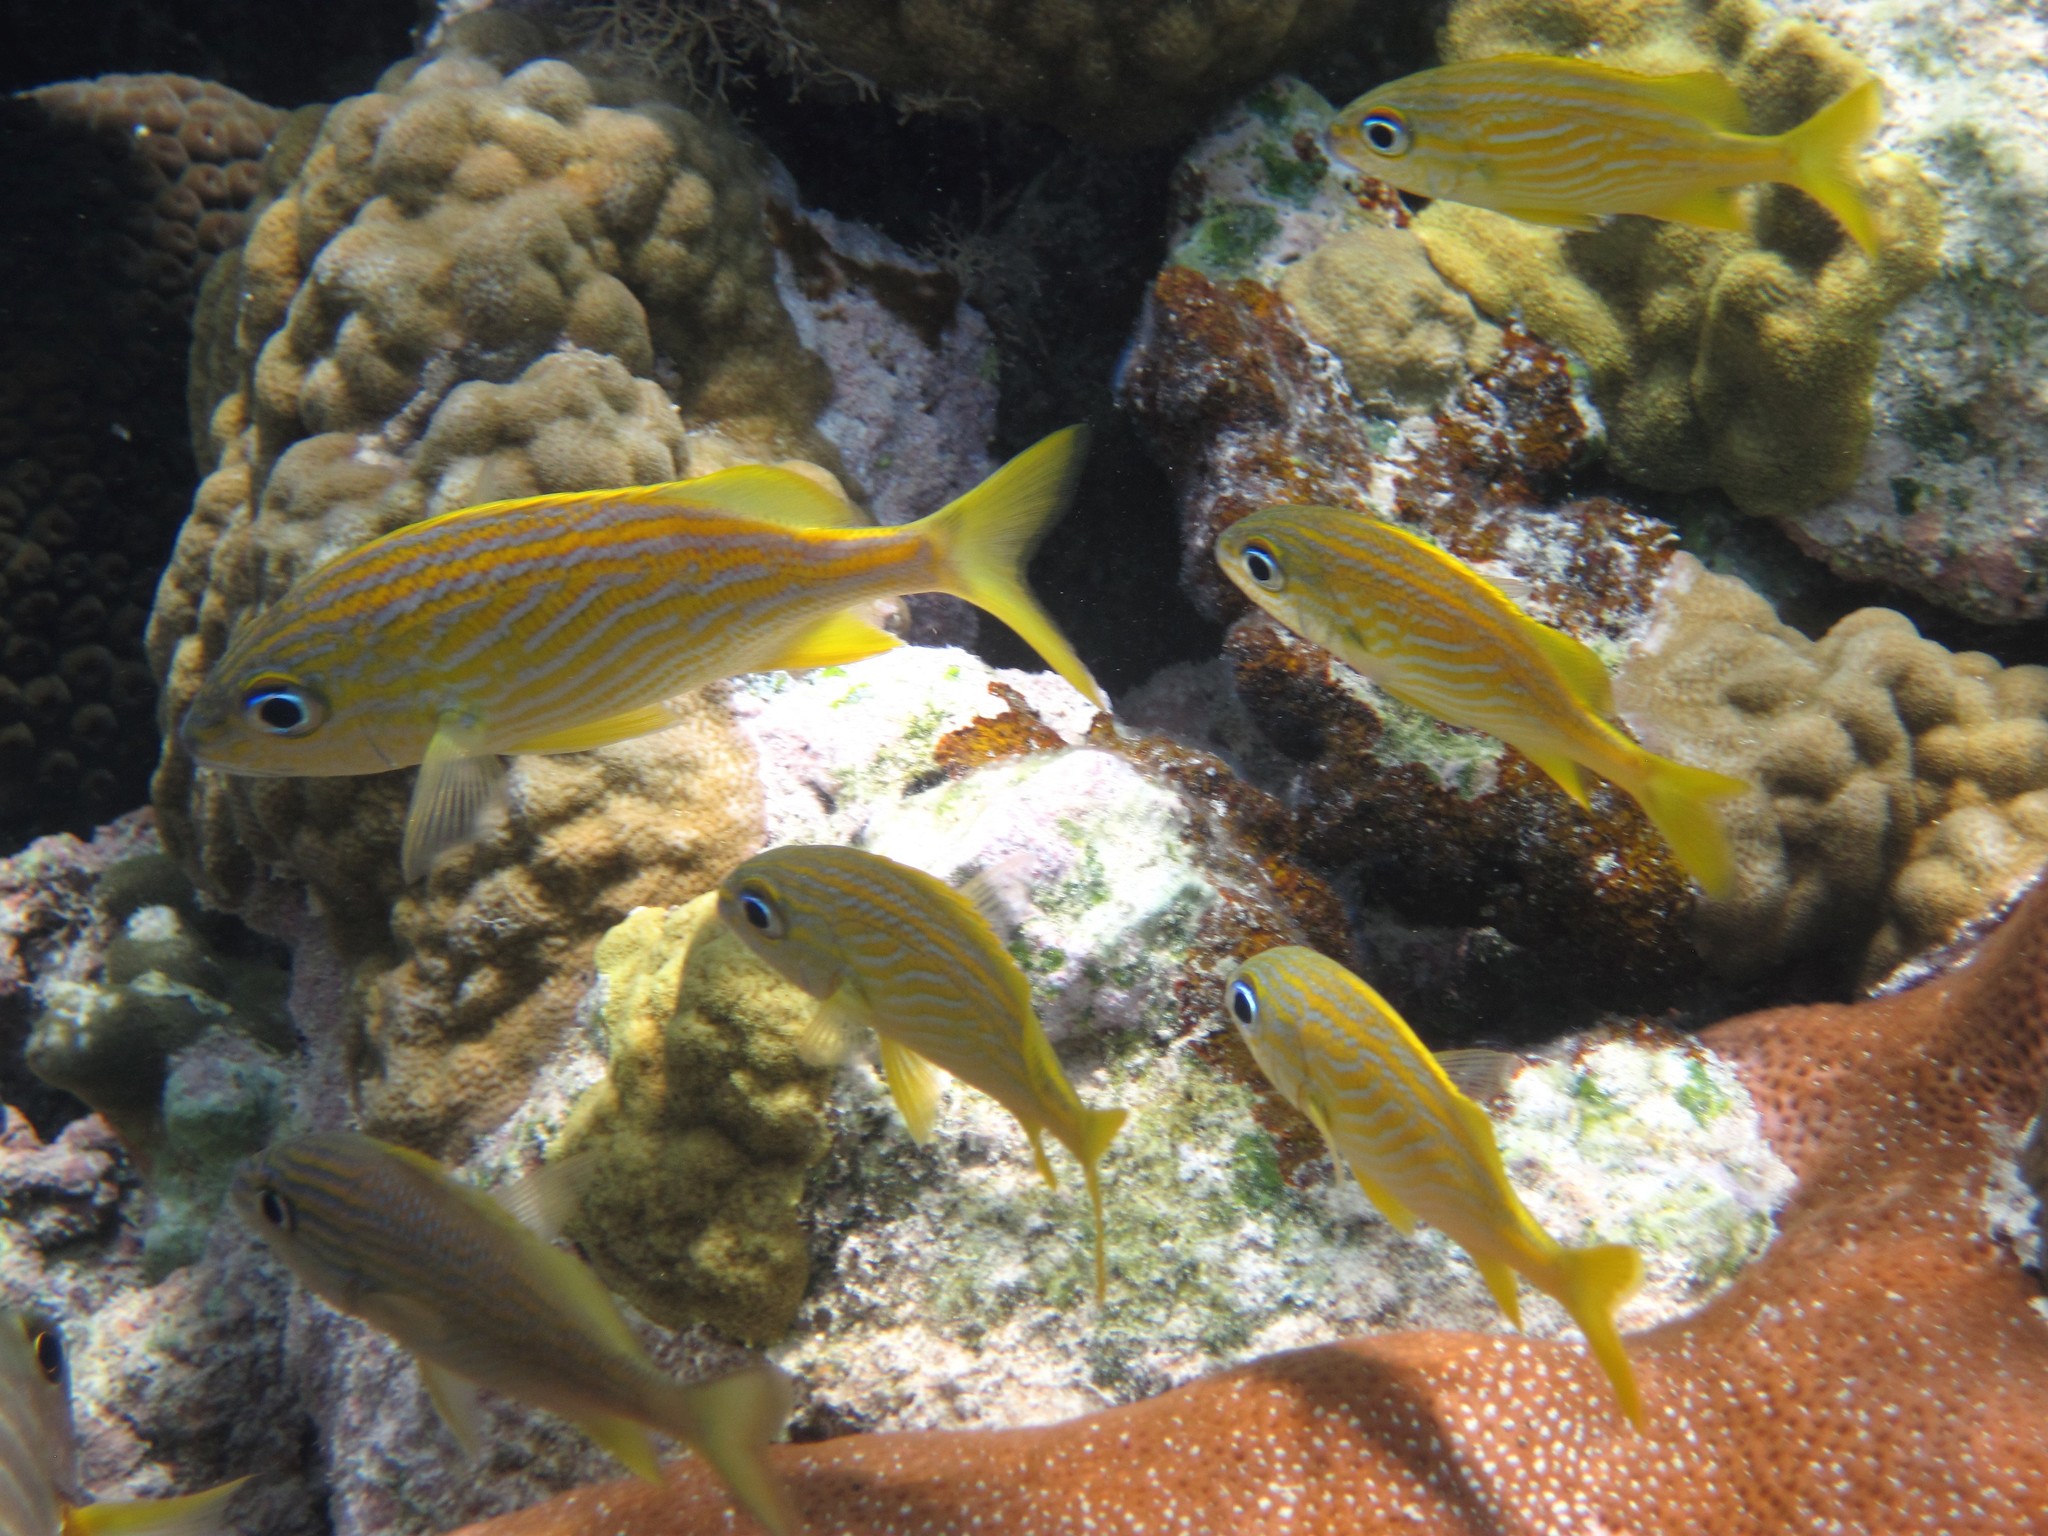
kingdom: Animalia
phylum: Chordata
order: Perciformes
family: Haemulidae
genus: Haemulon
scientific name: Haemulon flavolineatum
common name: French grunt
